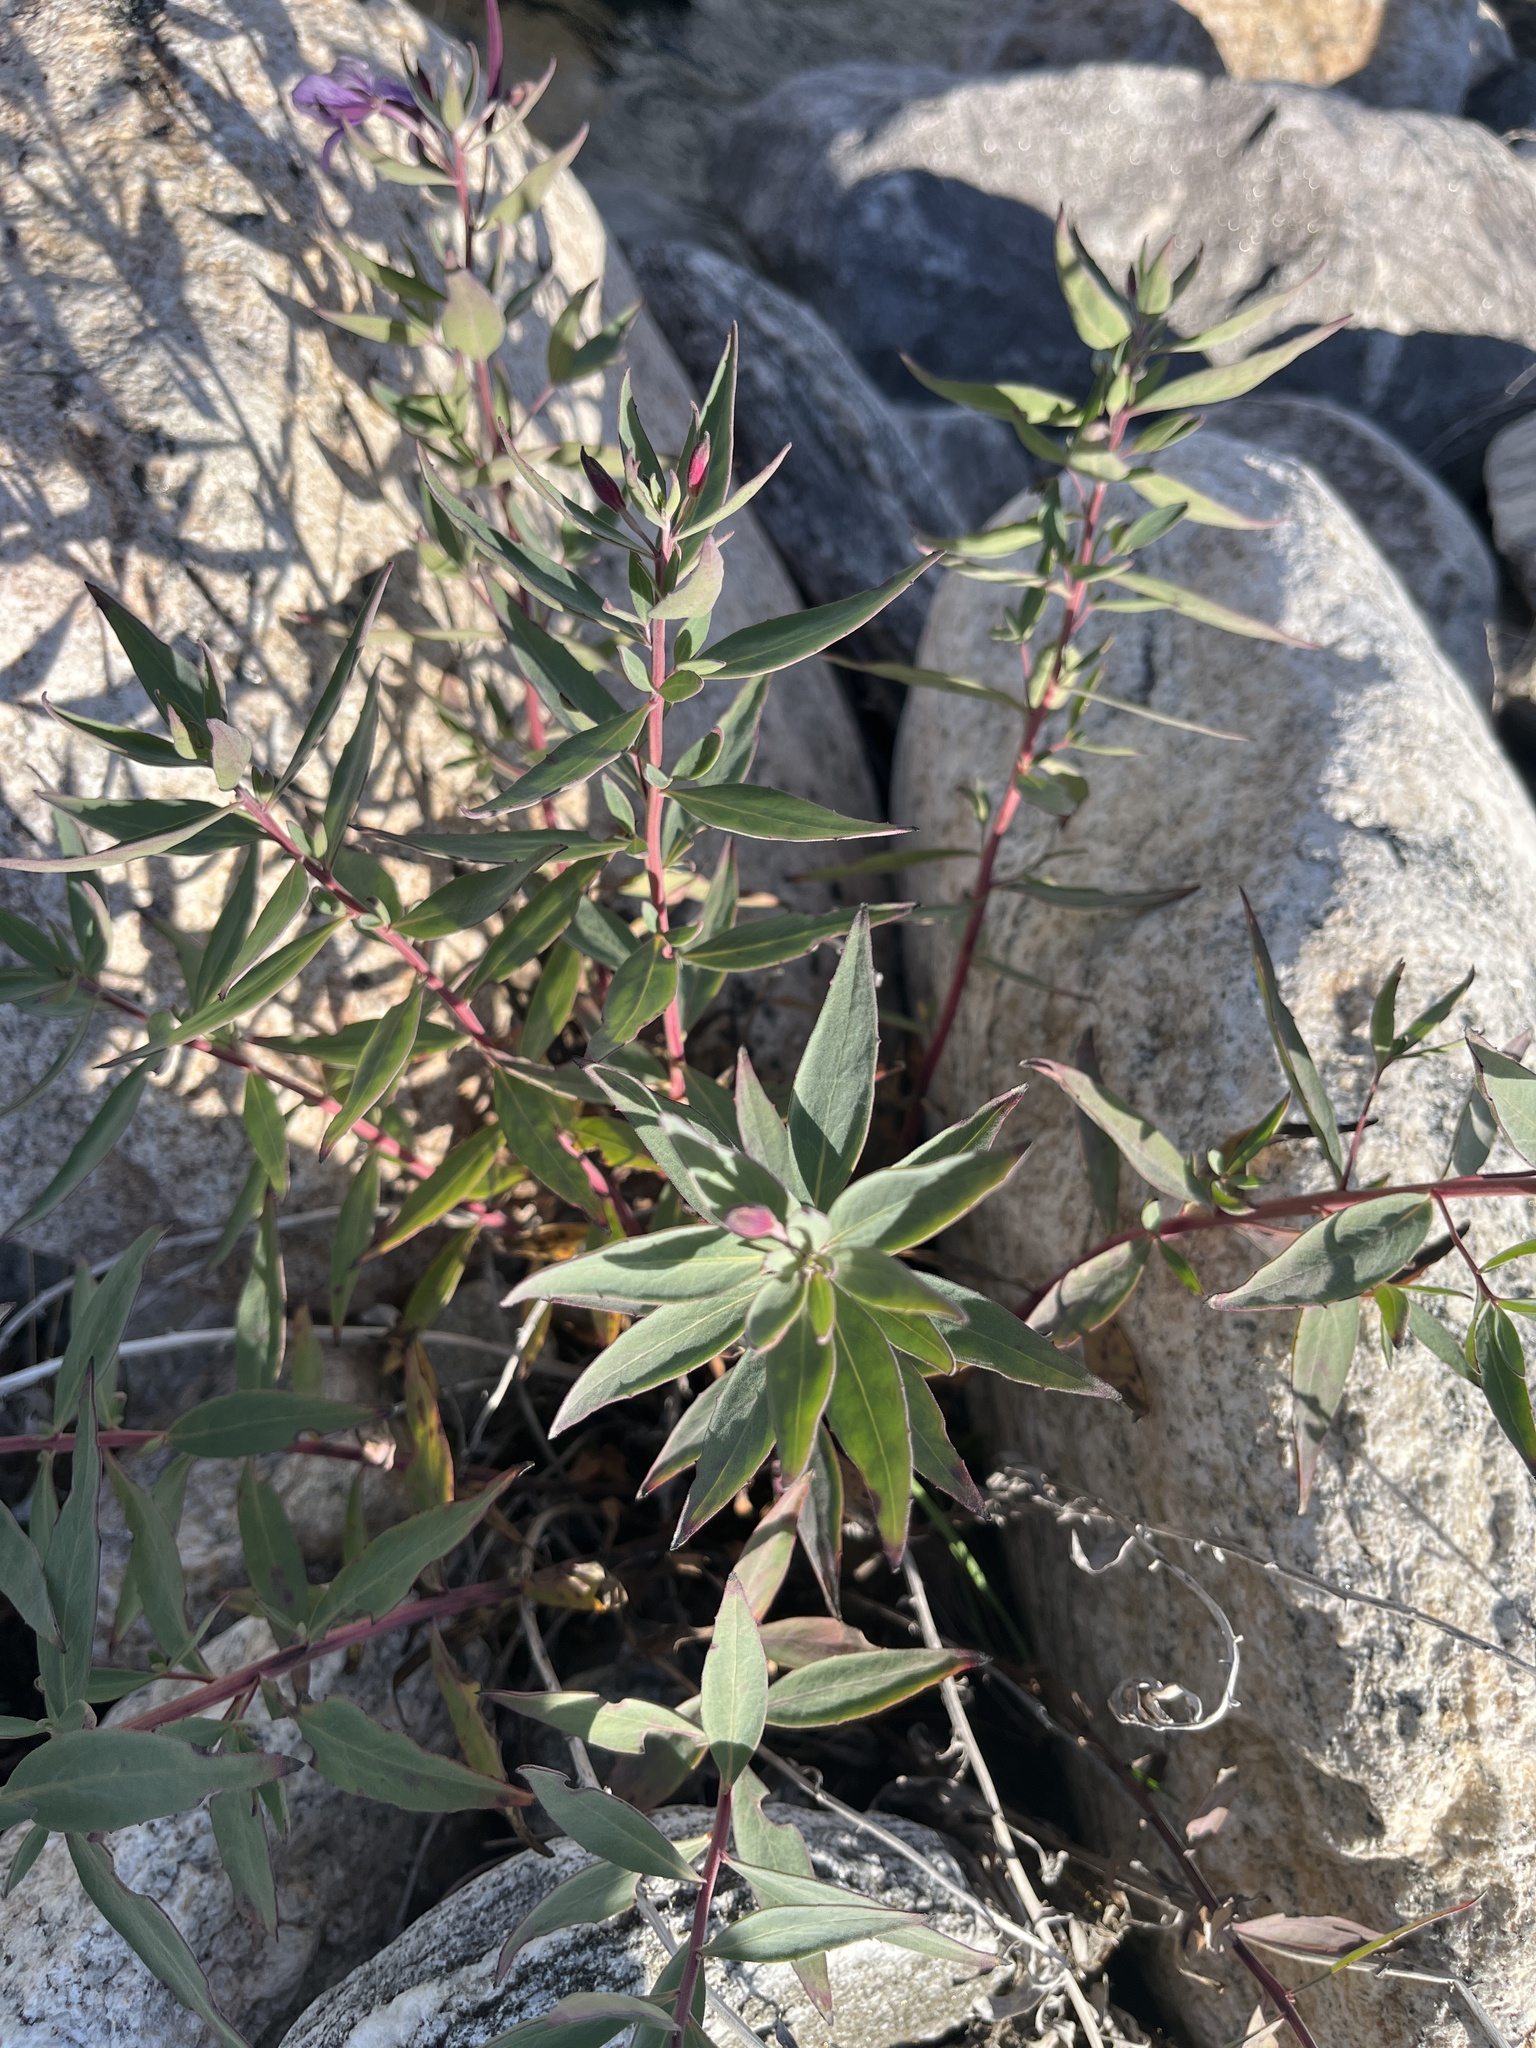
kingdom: Plantae
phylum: Tracheophyta
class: Magnoliopsida
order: Myrtales
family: Onagraceae
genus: Chamaenerion
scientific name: Chamaenerion latifolium
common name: Dwarf fireweed
